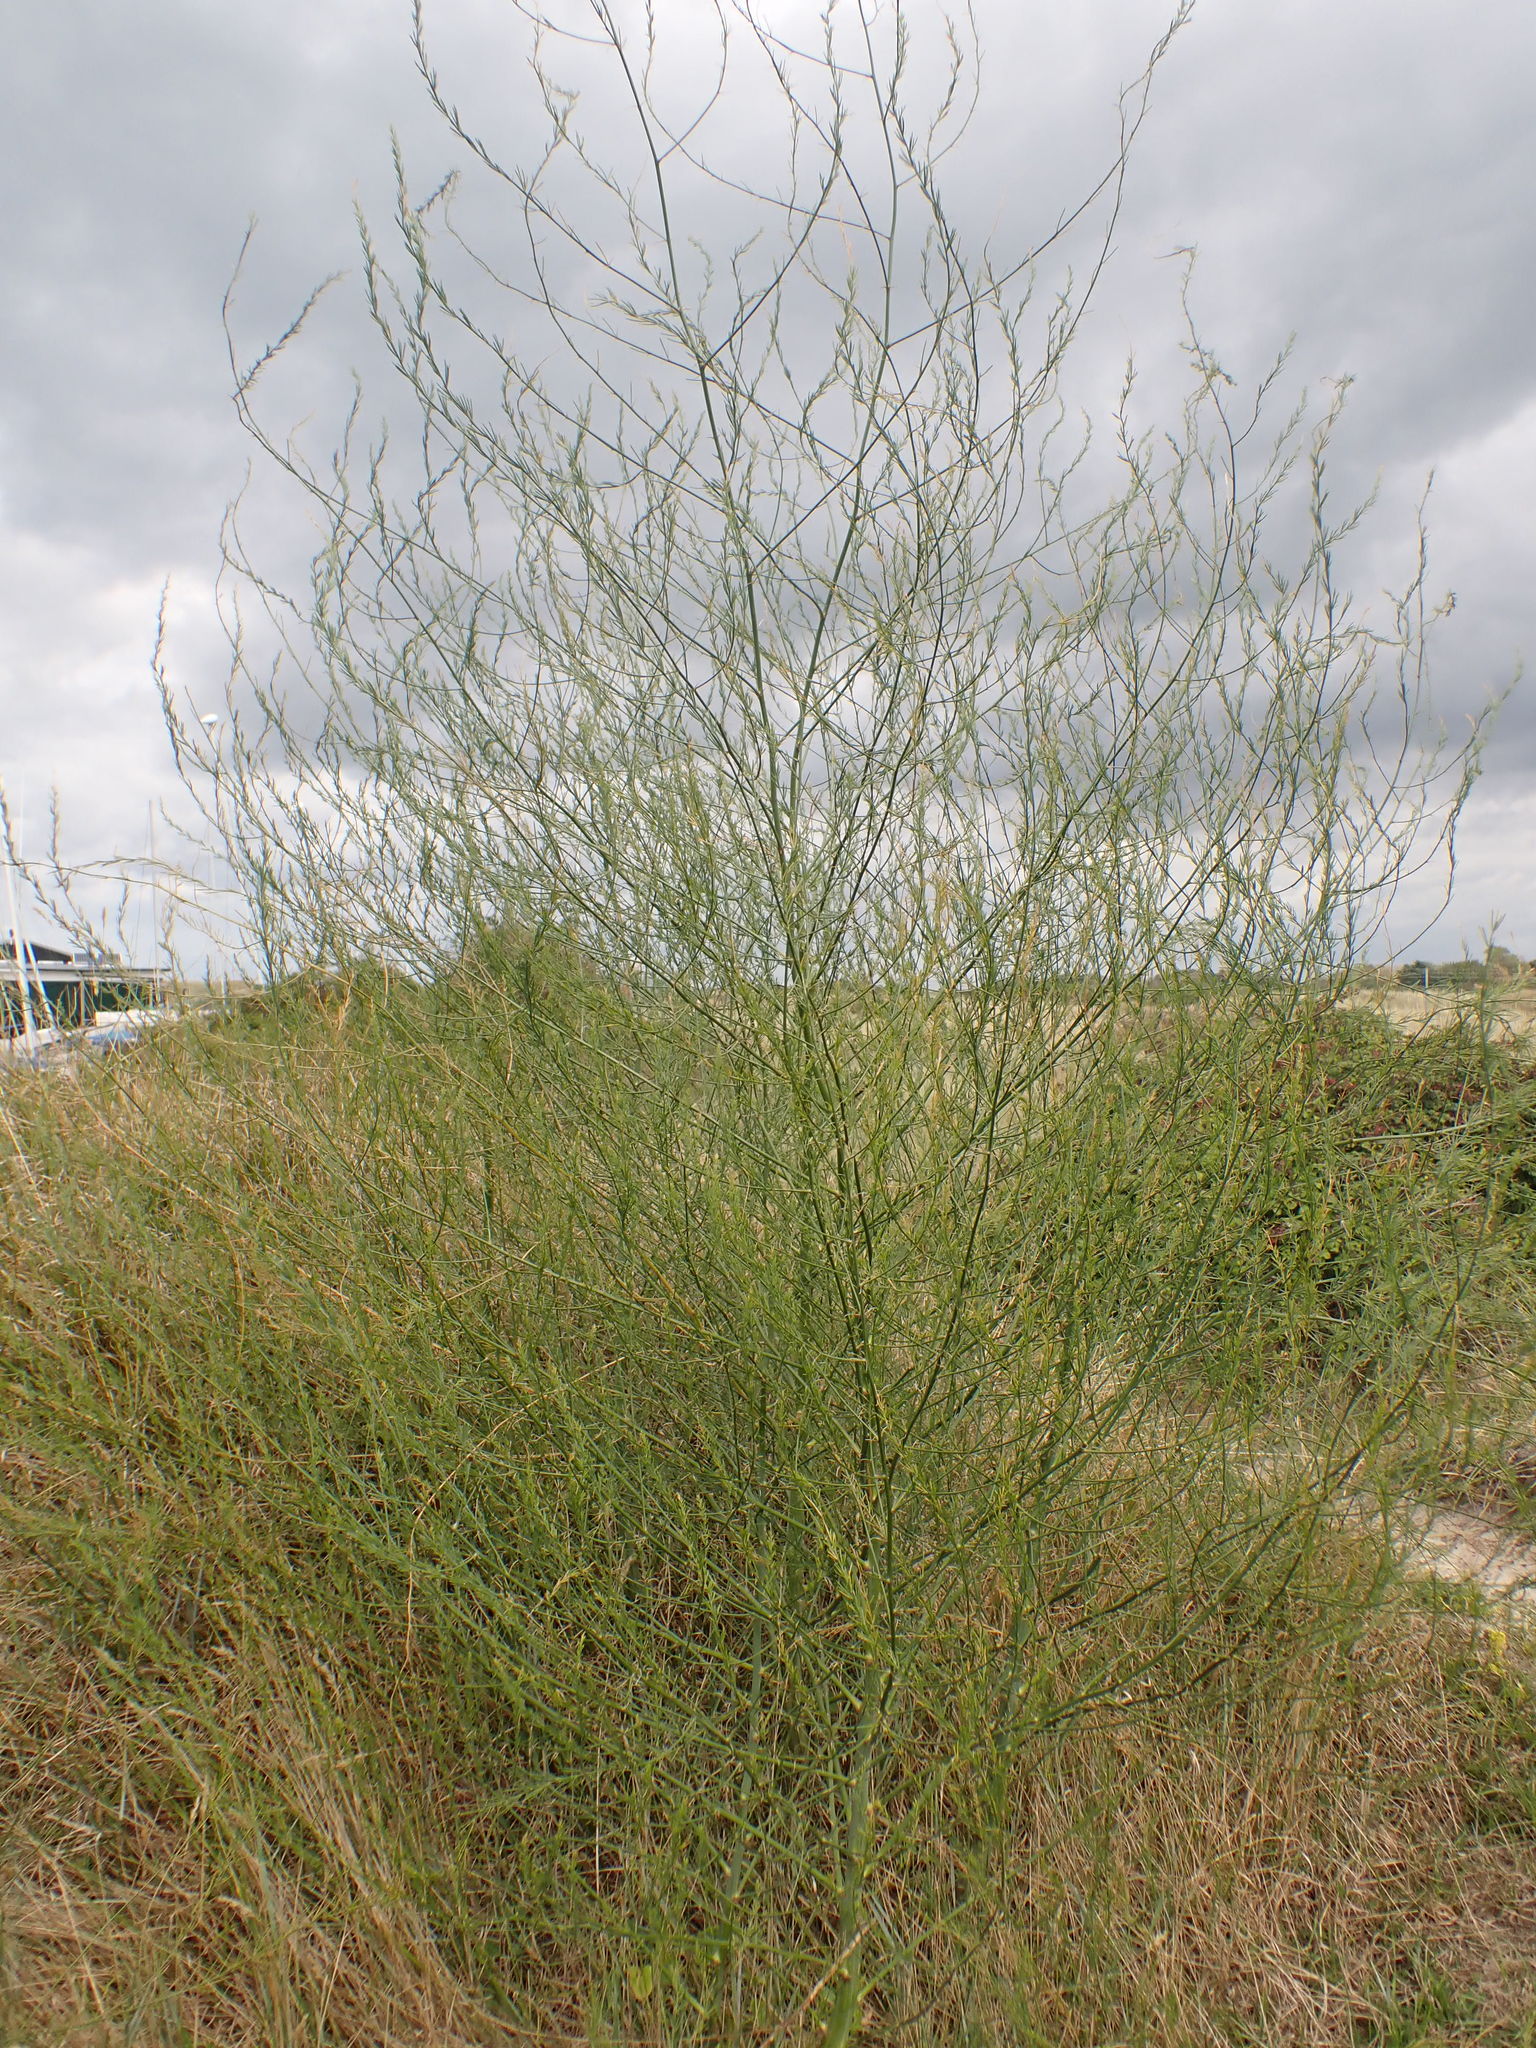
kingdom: Plantae
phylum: Tracheophyta
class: Liliopsida
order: Asparagales
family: Asparagaceae
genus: Asparagus
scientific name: Asparagus officinalis
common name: Garden asparagus
